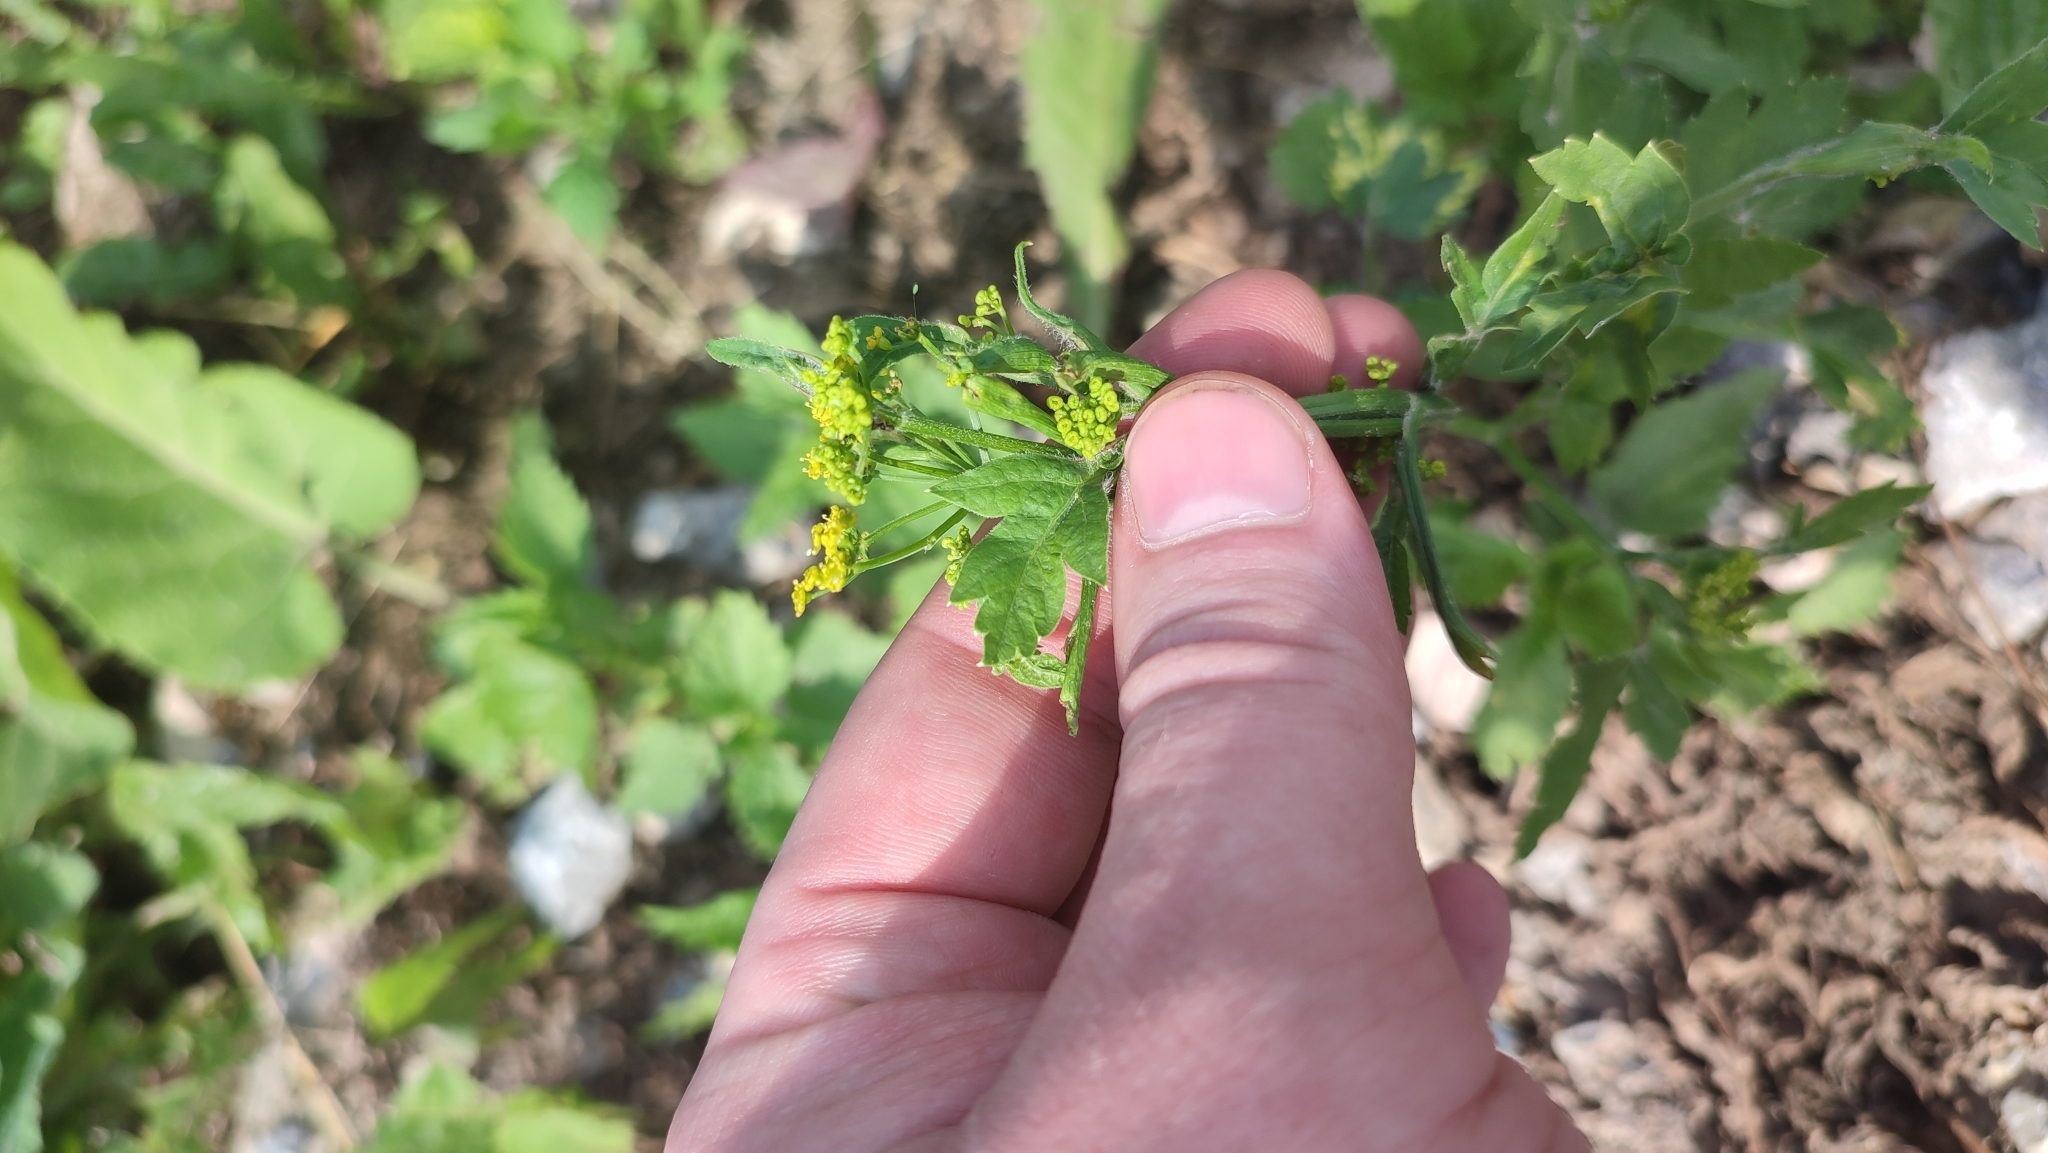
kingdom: Plantae
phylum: Tracheophyta
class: Magnoliopsida
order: Apiales
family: Apiaceae
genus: Pastinaca
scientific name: Pastinaca sativa
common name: Wild parsnip
